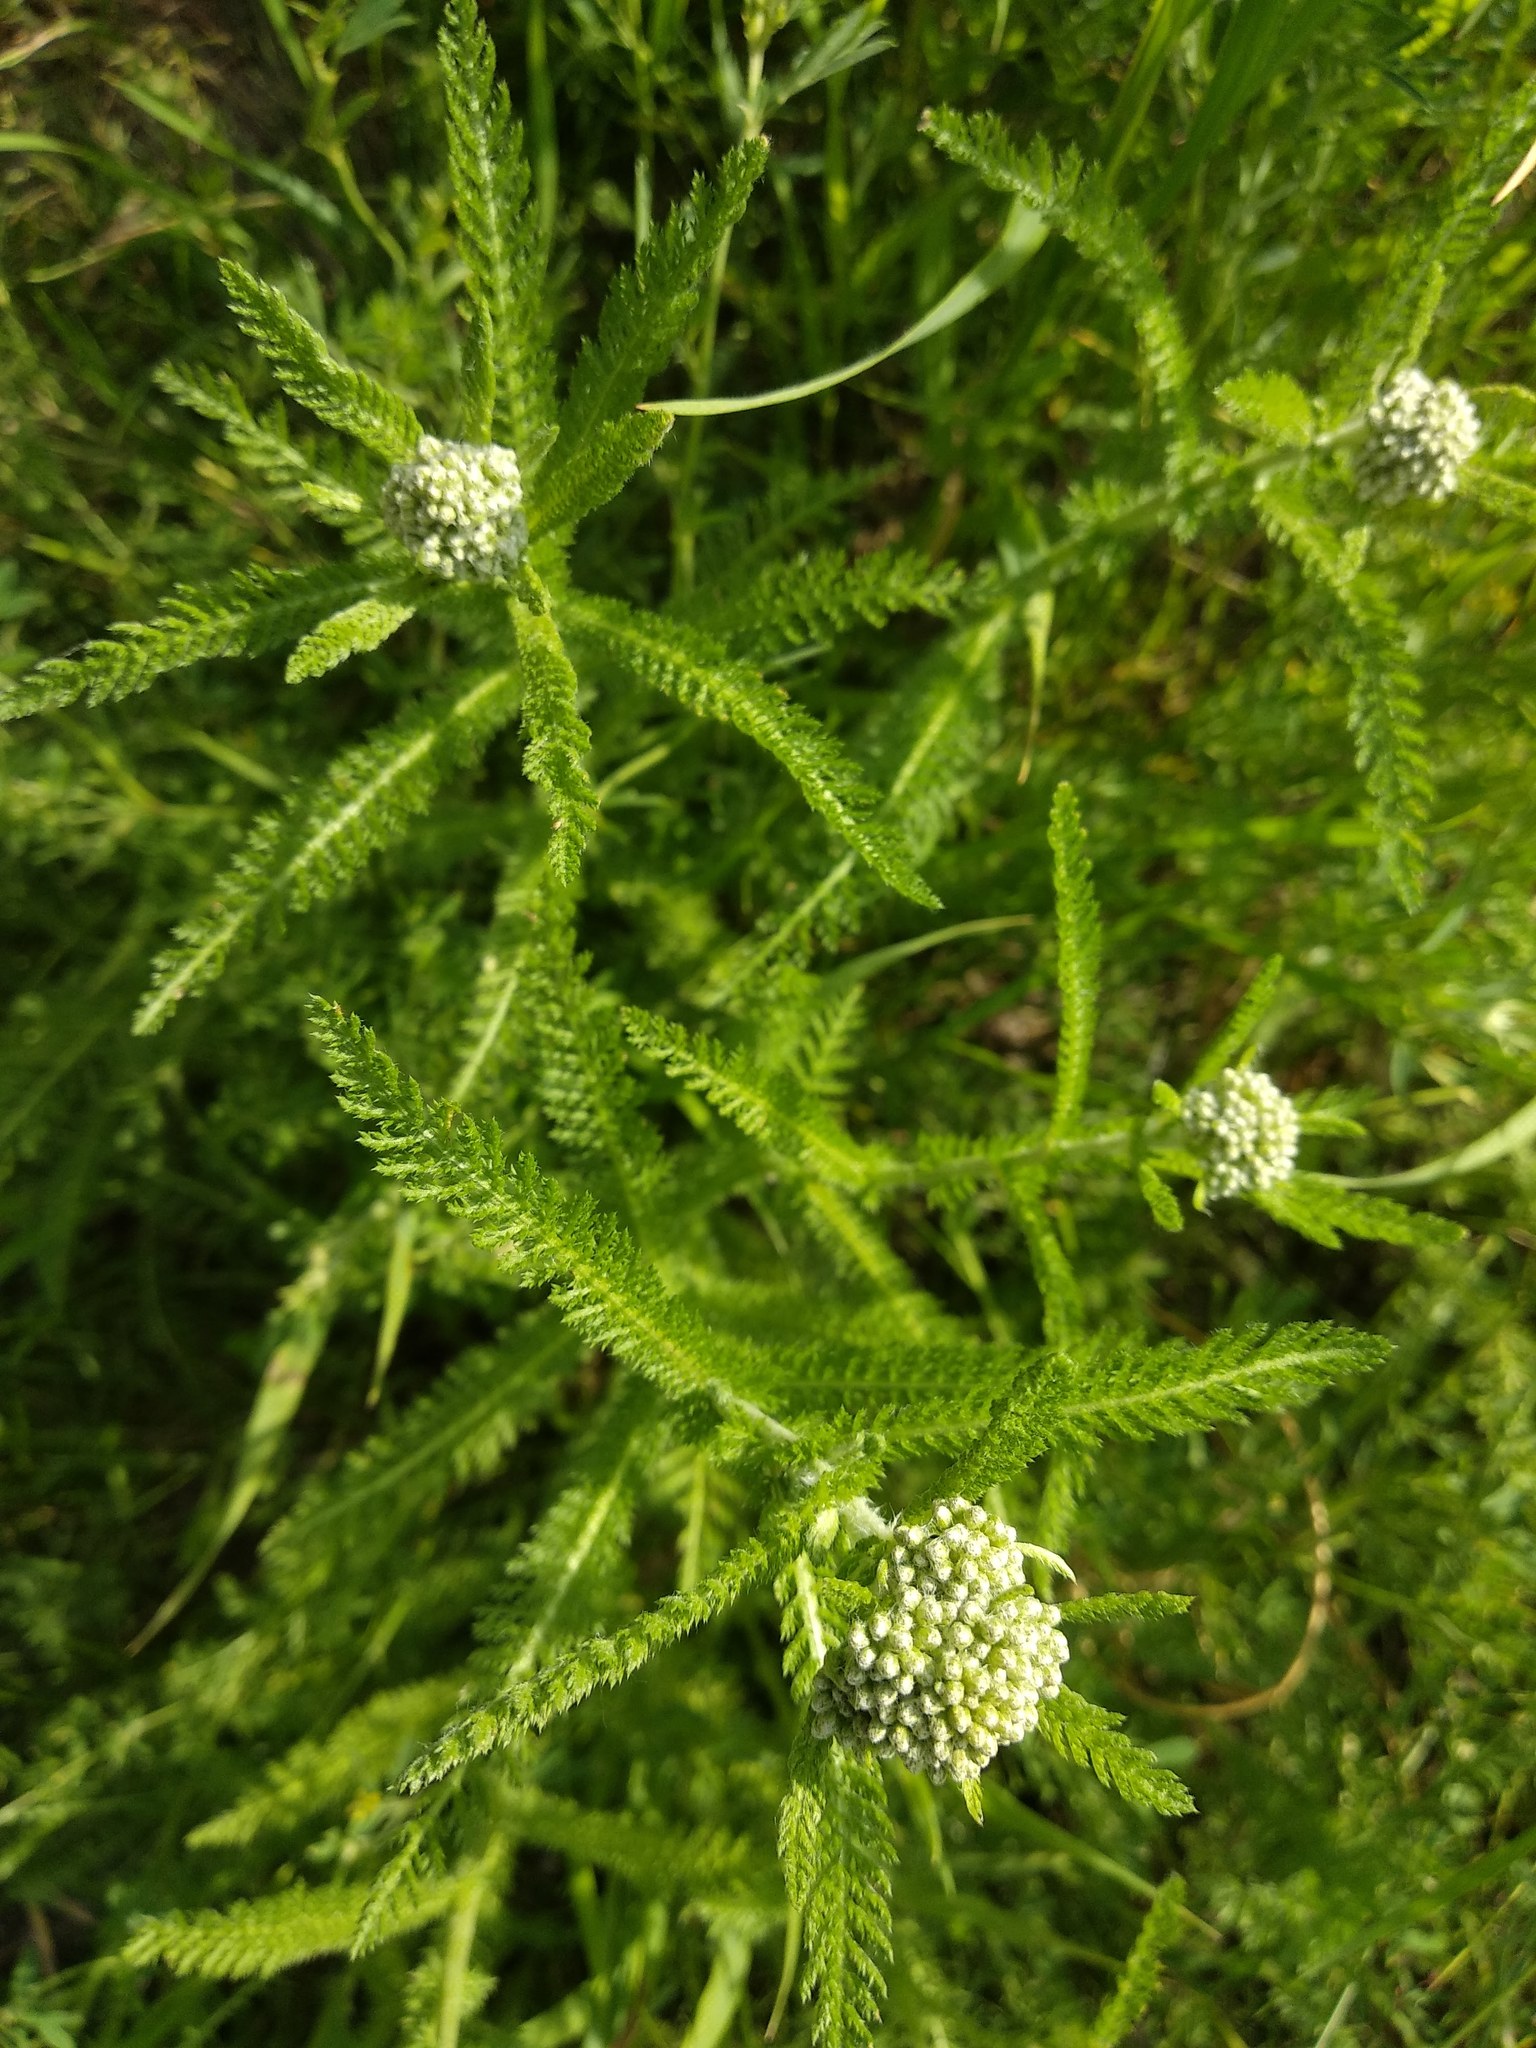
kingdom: Plantae
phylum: Tracheophyta
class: Magnoliopsida
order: Asterales
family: Asteraceae
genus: Achillea
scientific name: Achillea millefolium
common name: Yarrow
